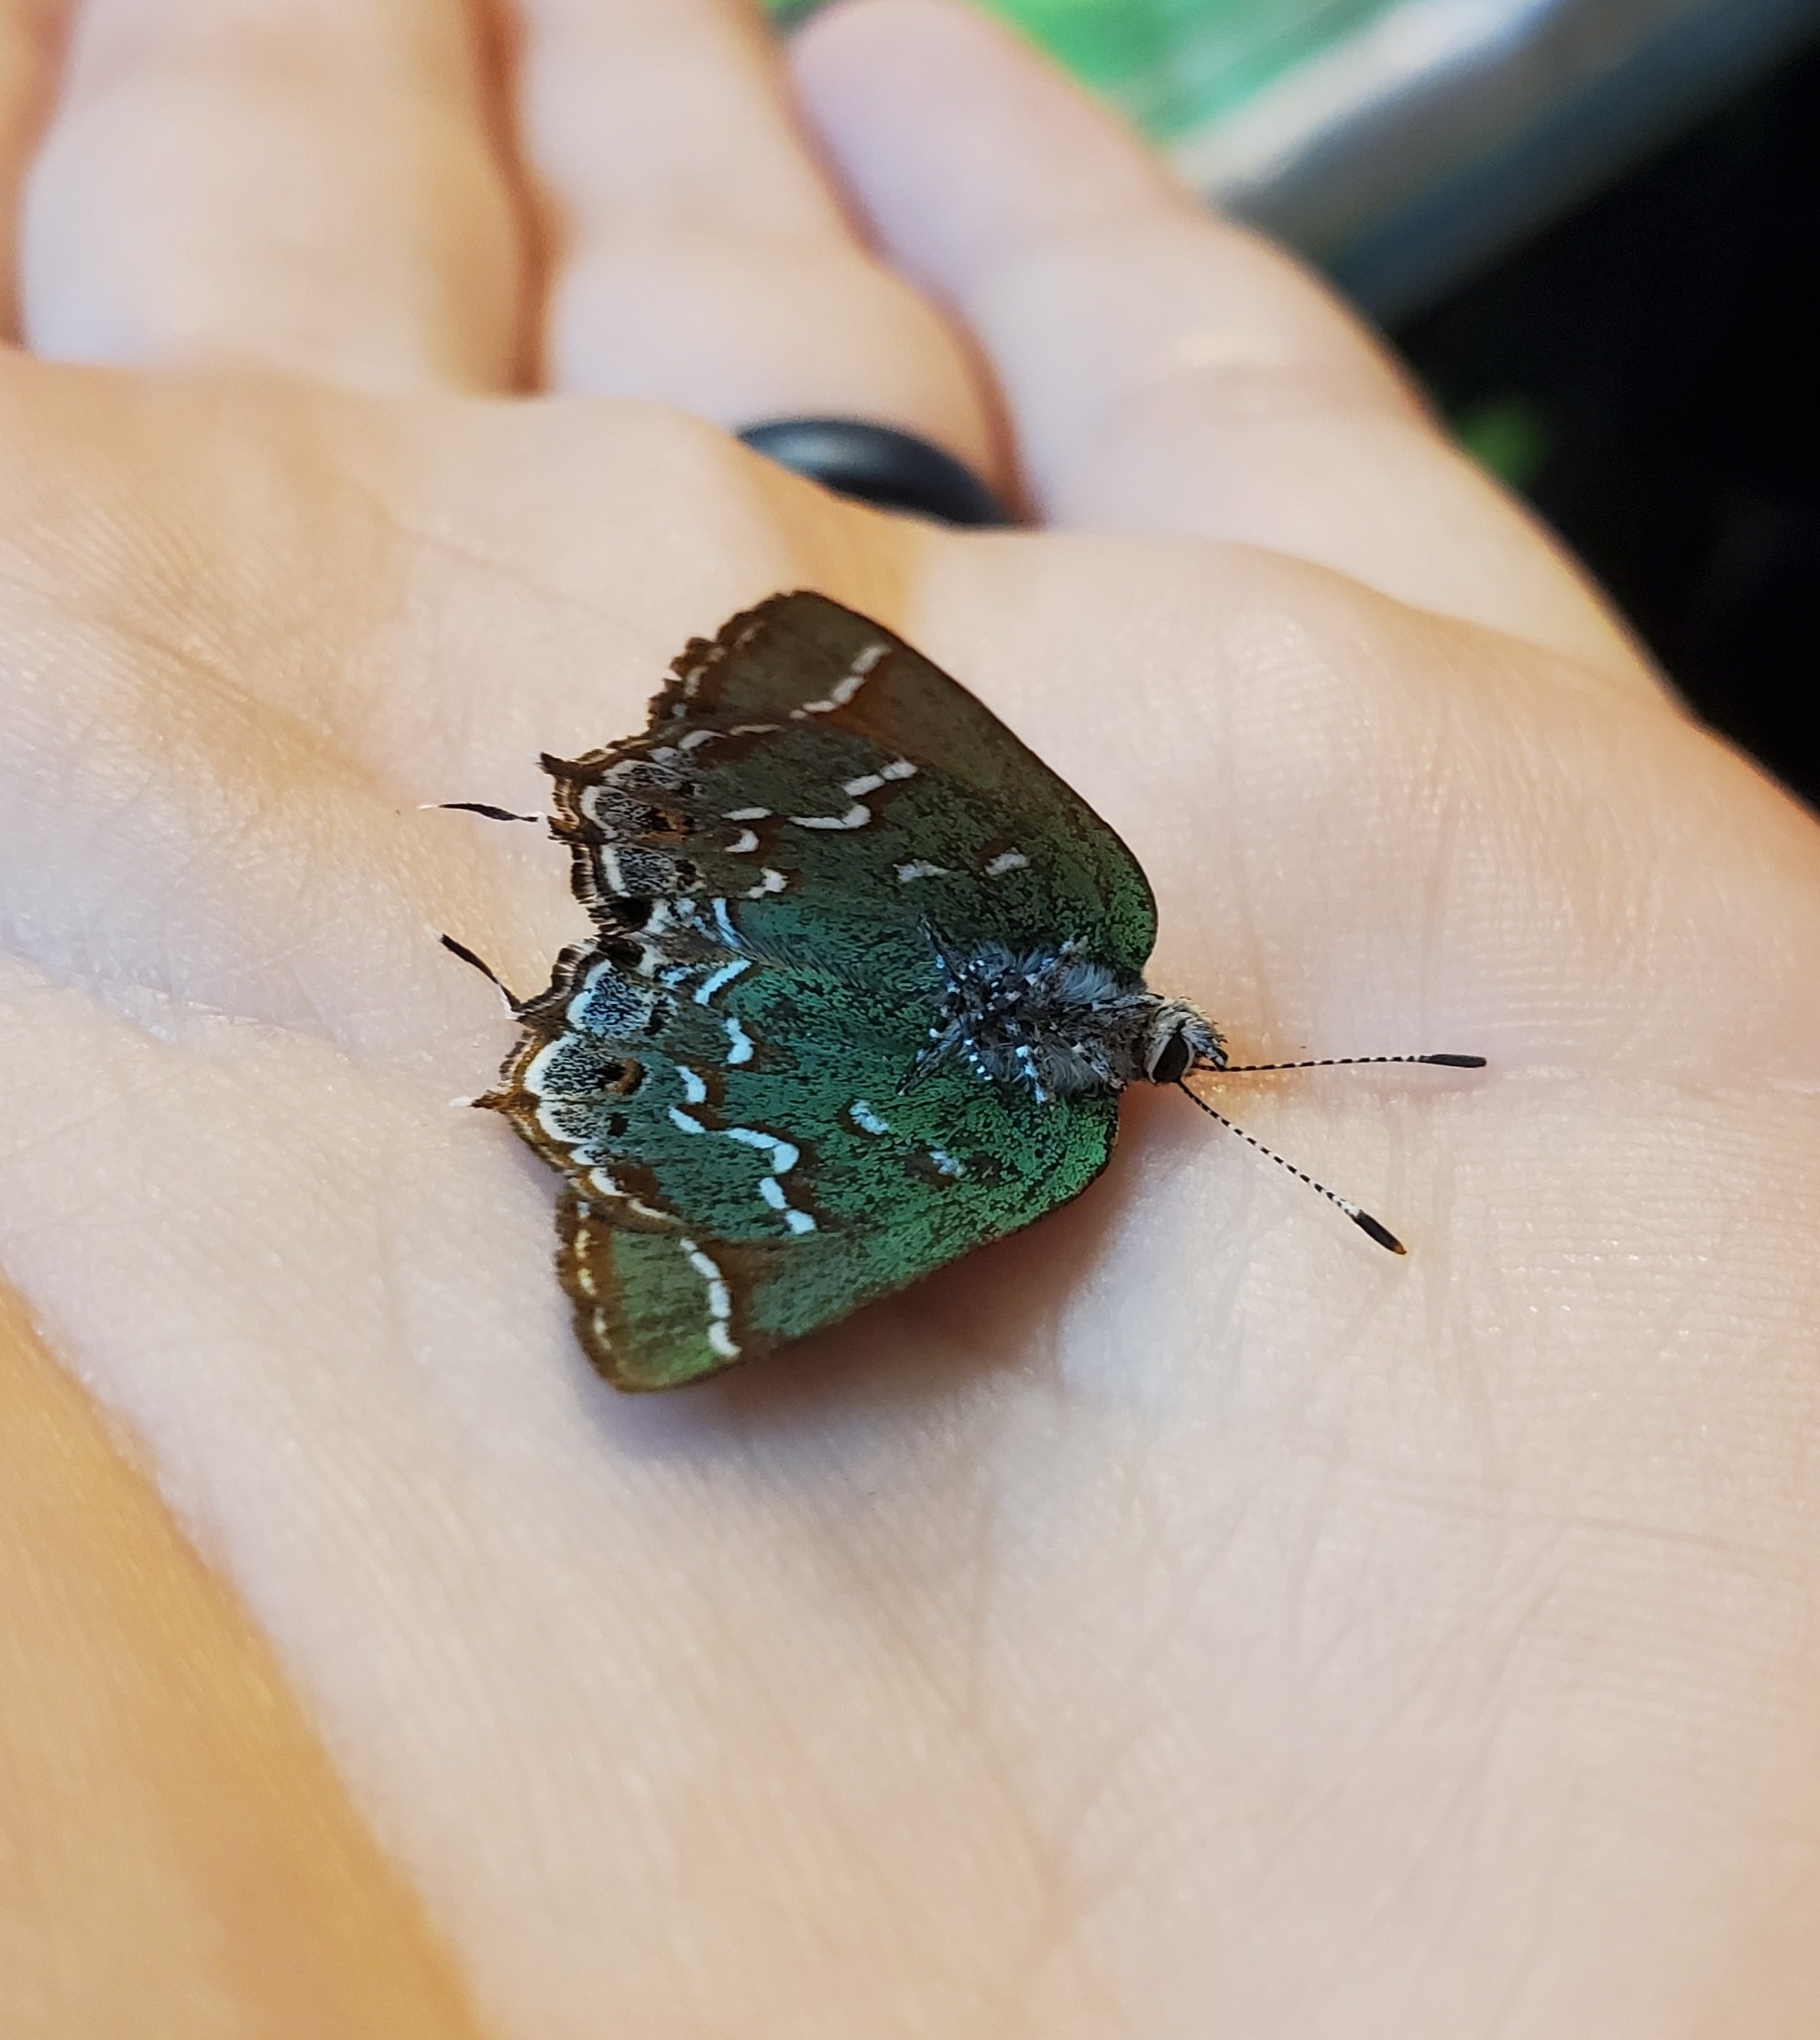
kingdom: Animalia
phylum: Arthropoda
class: Insecta
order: Lepidoptera
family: Lycaenidae
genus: Mitoura
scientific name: Mitoura gryneus
